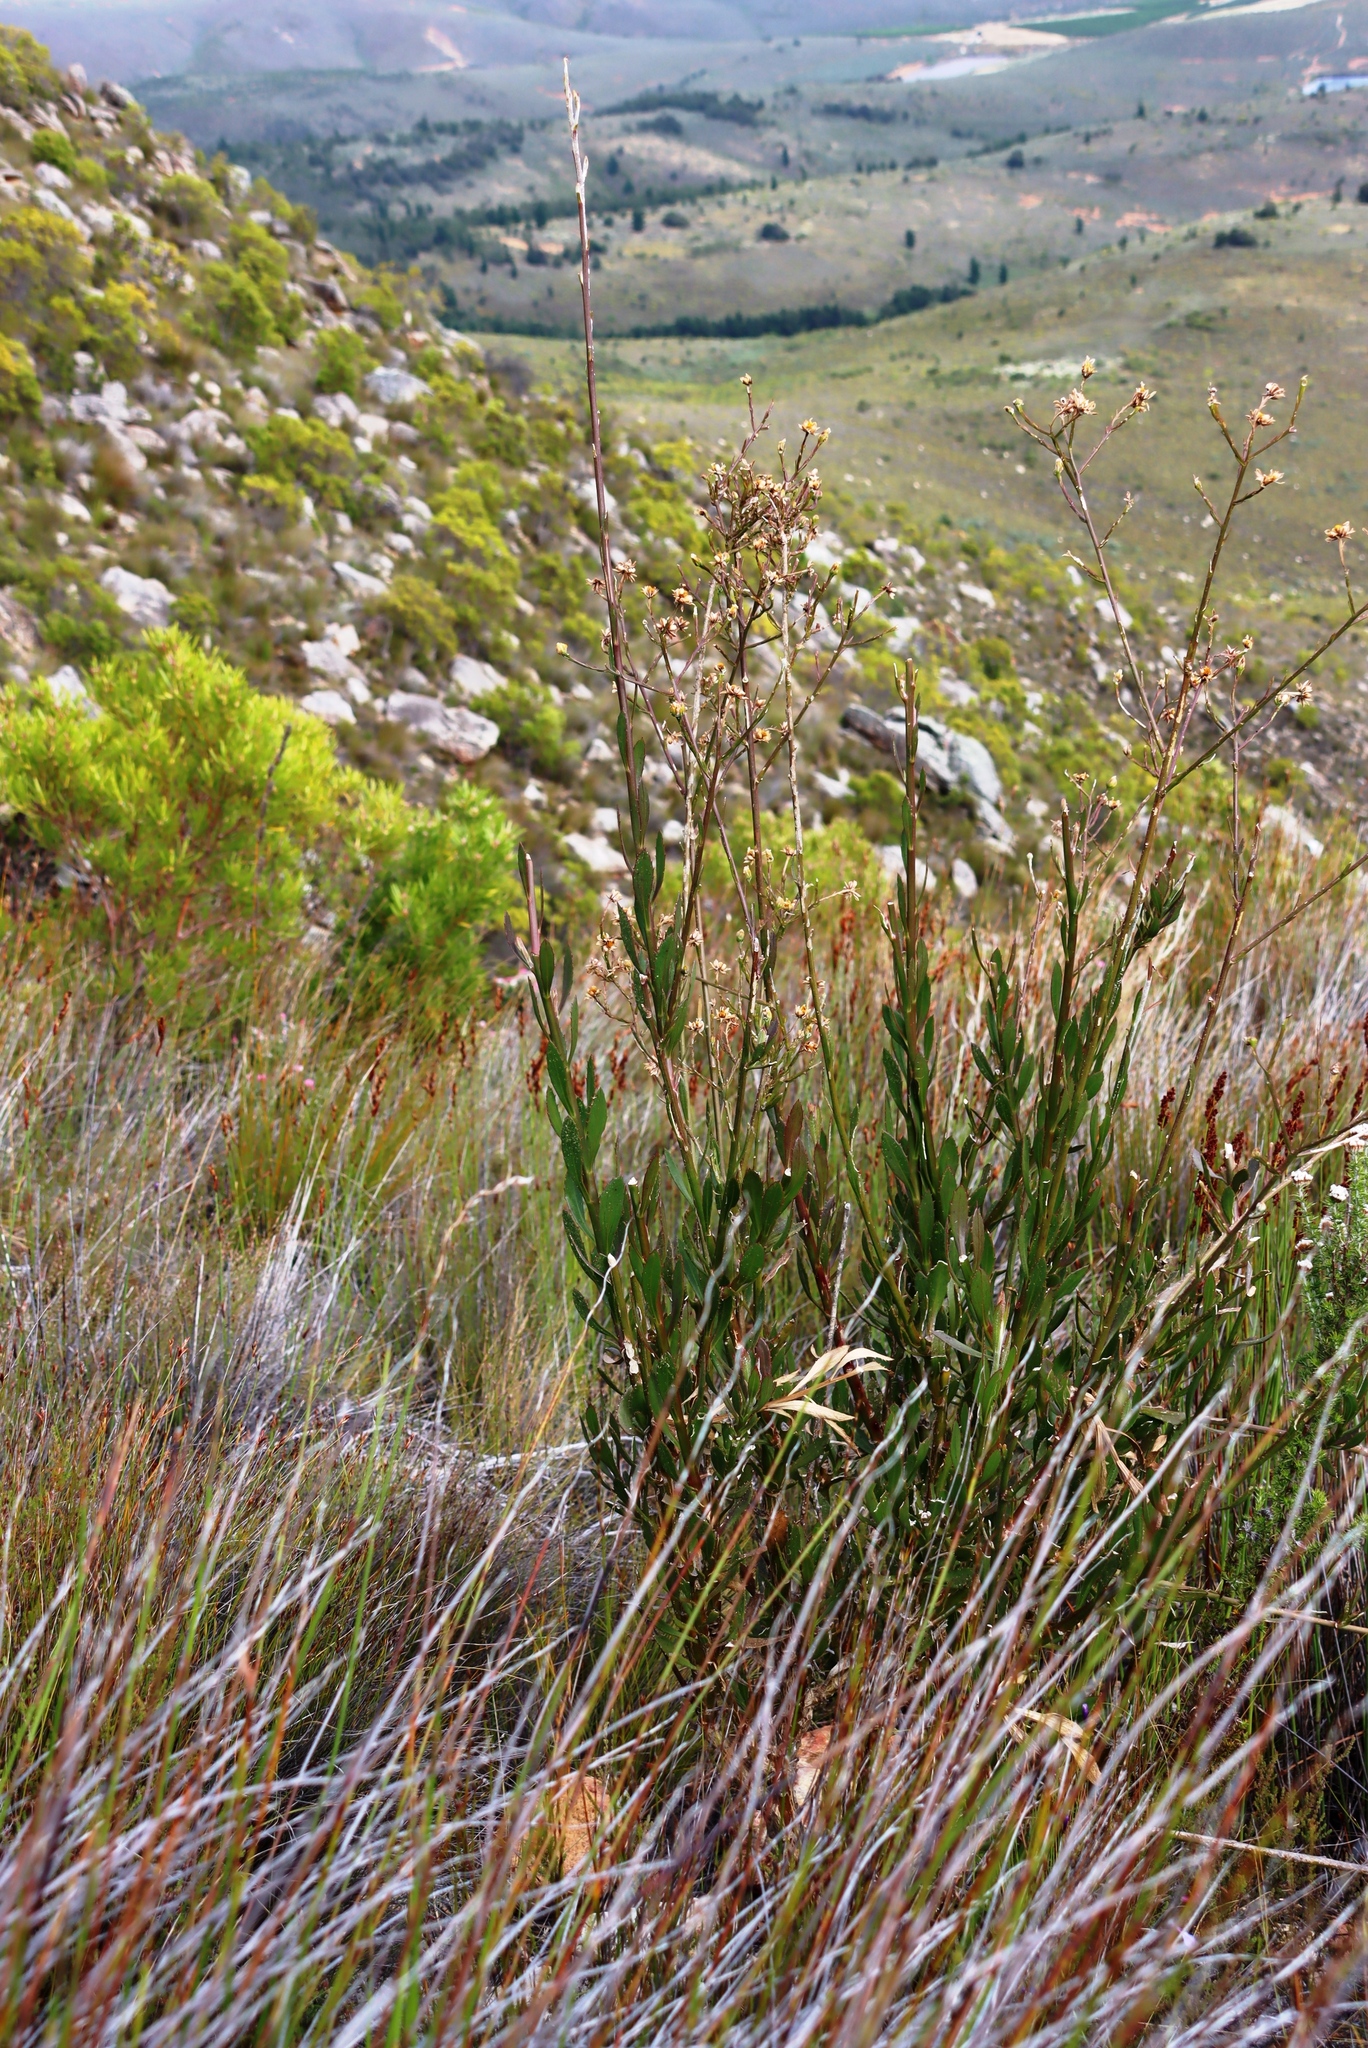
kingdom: Plantae
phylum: Tracheophyta
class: Magnoliopsida
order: Asterales
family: Asteraceae
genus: Osteospermum
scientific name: Osteospermum junceum
